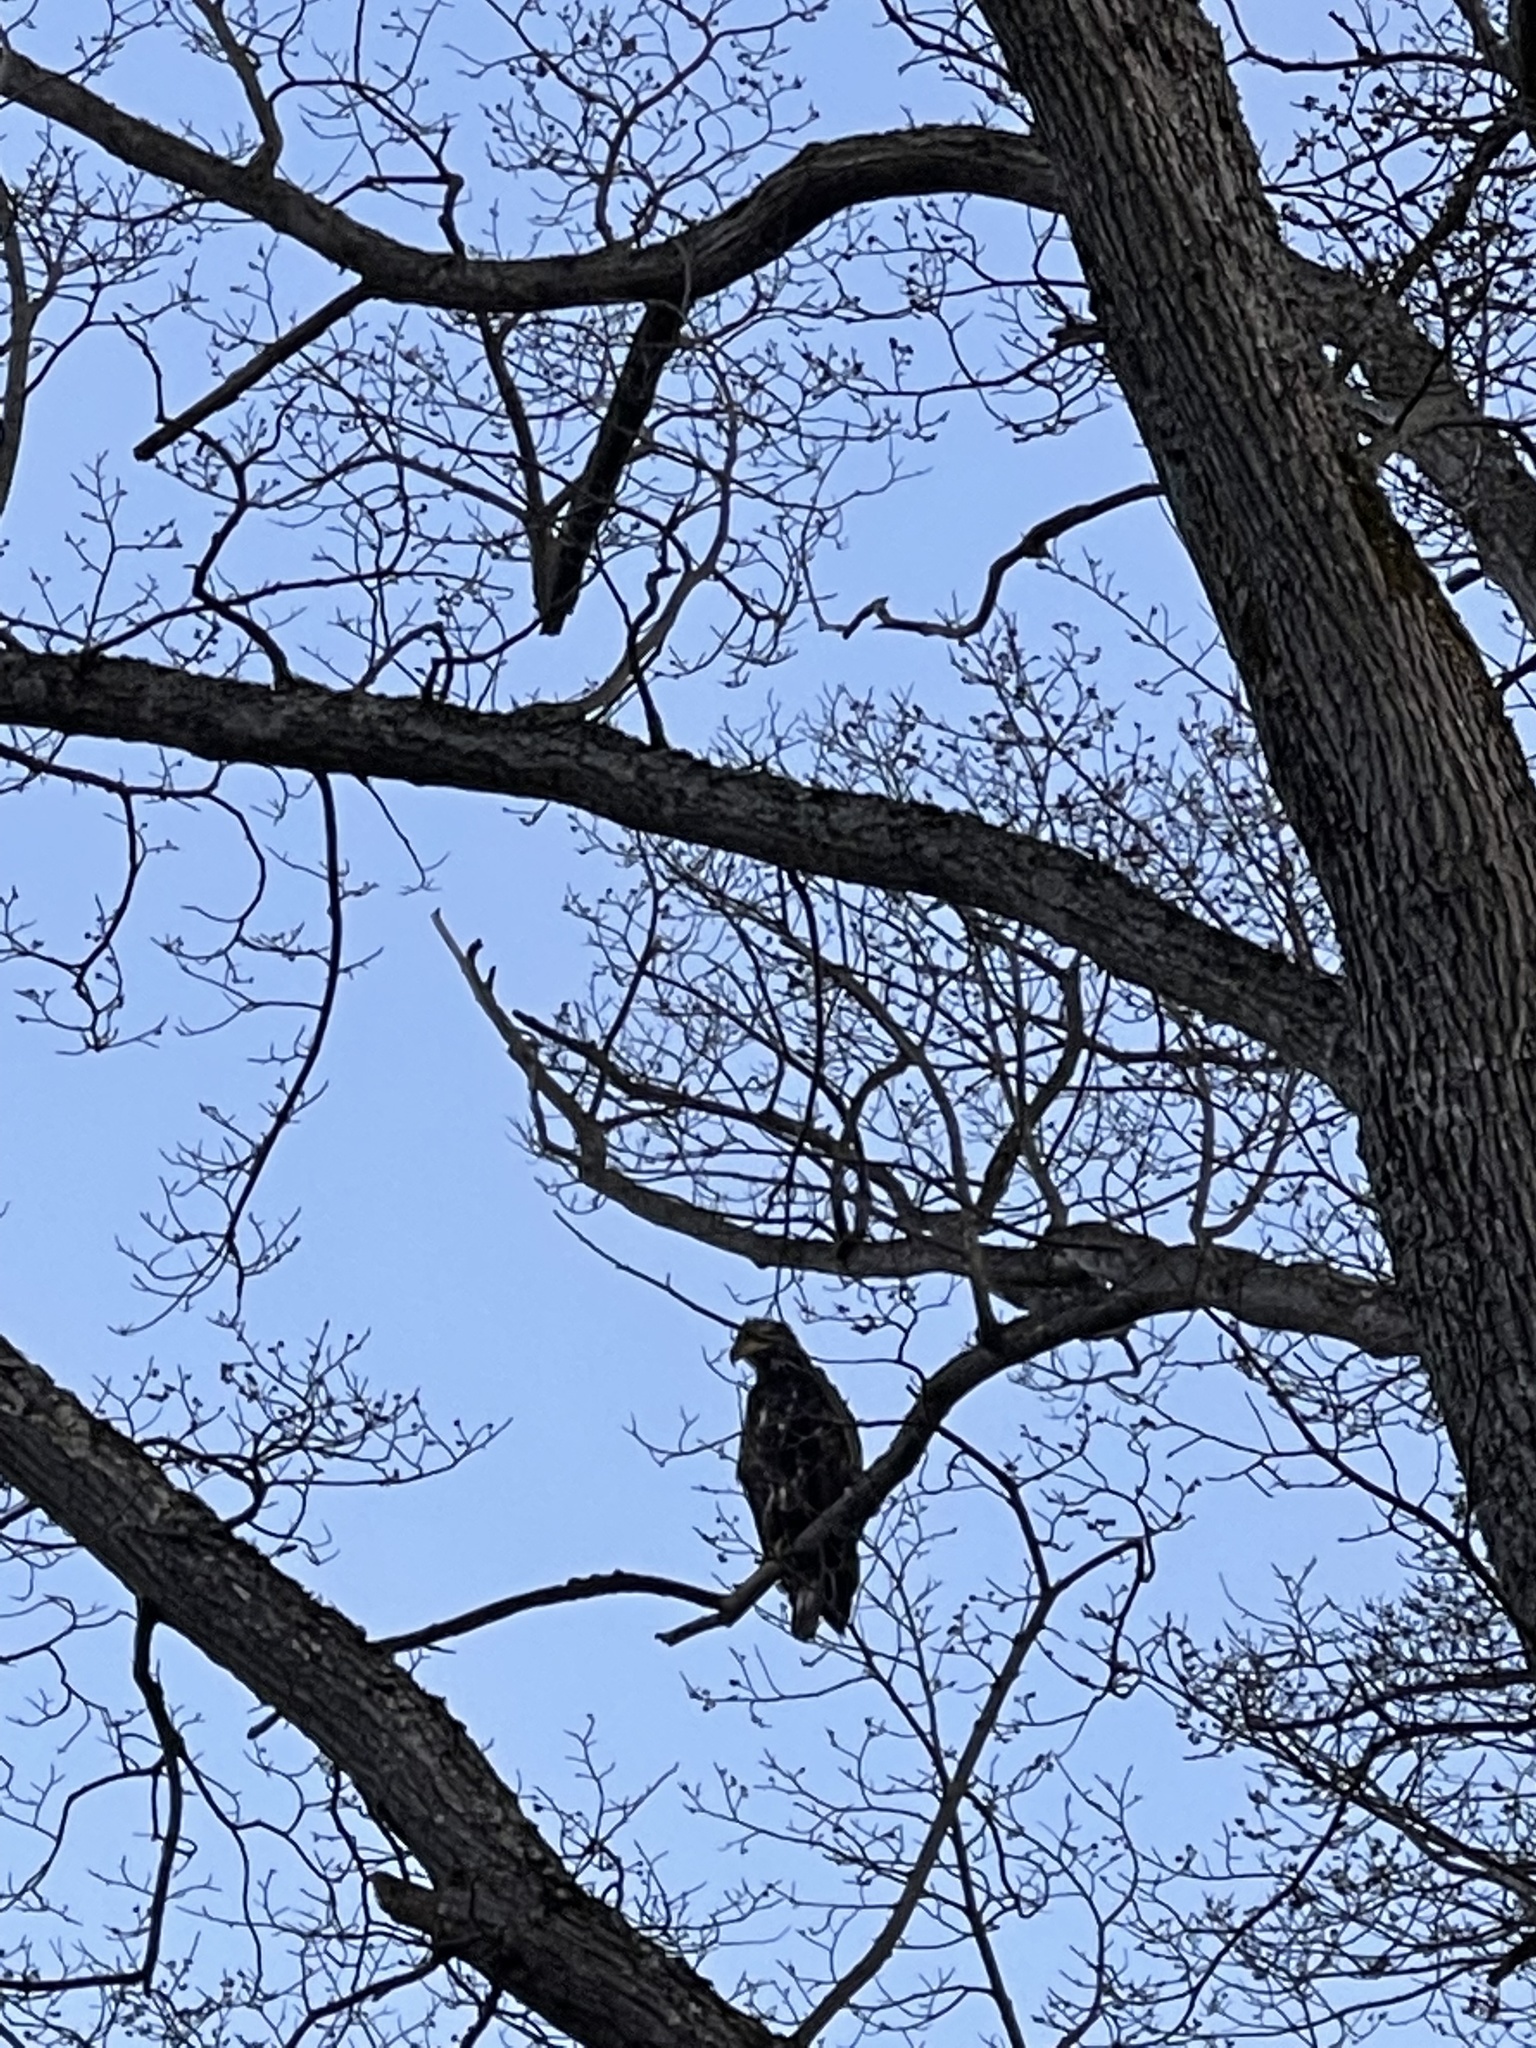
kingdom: Animalia
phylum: Chordata
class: Aves
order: Accipitriformes
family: Accipitridae
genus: Haliaeetus
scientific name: Haliaeetus leucocephalus
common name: Bald eagle
